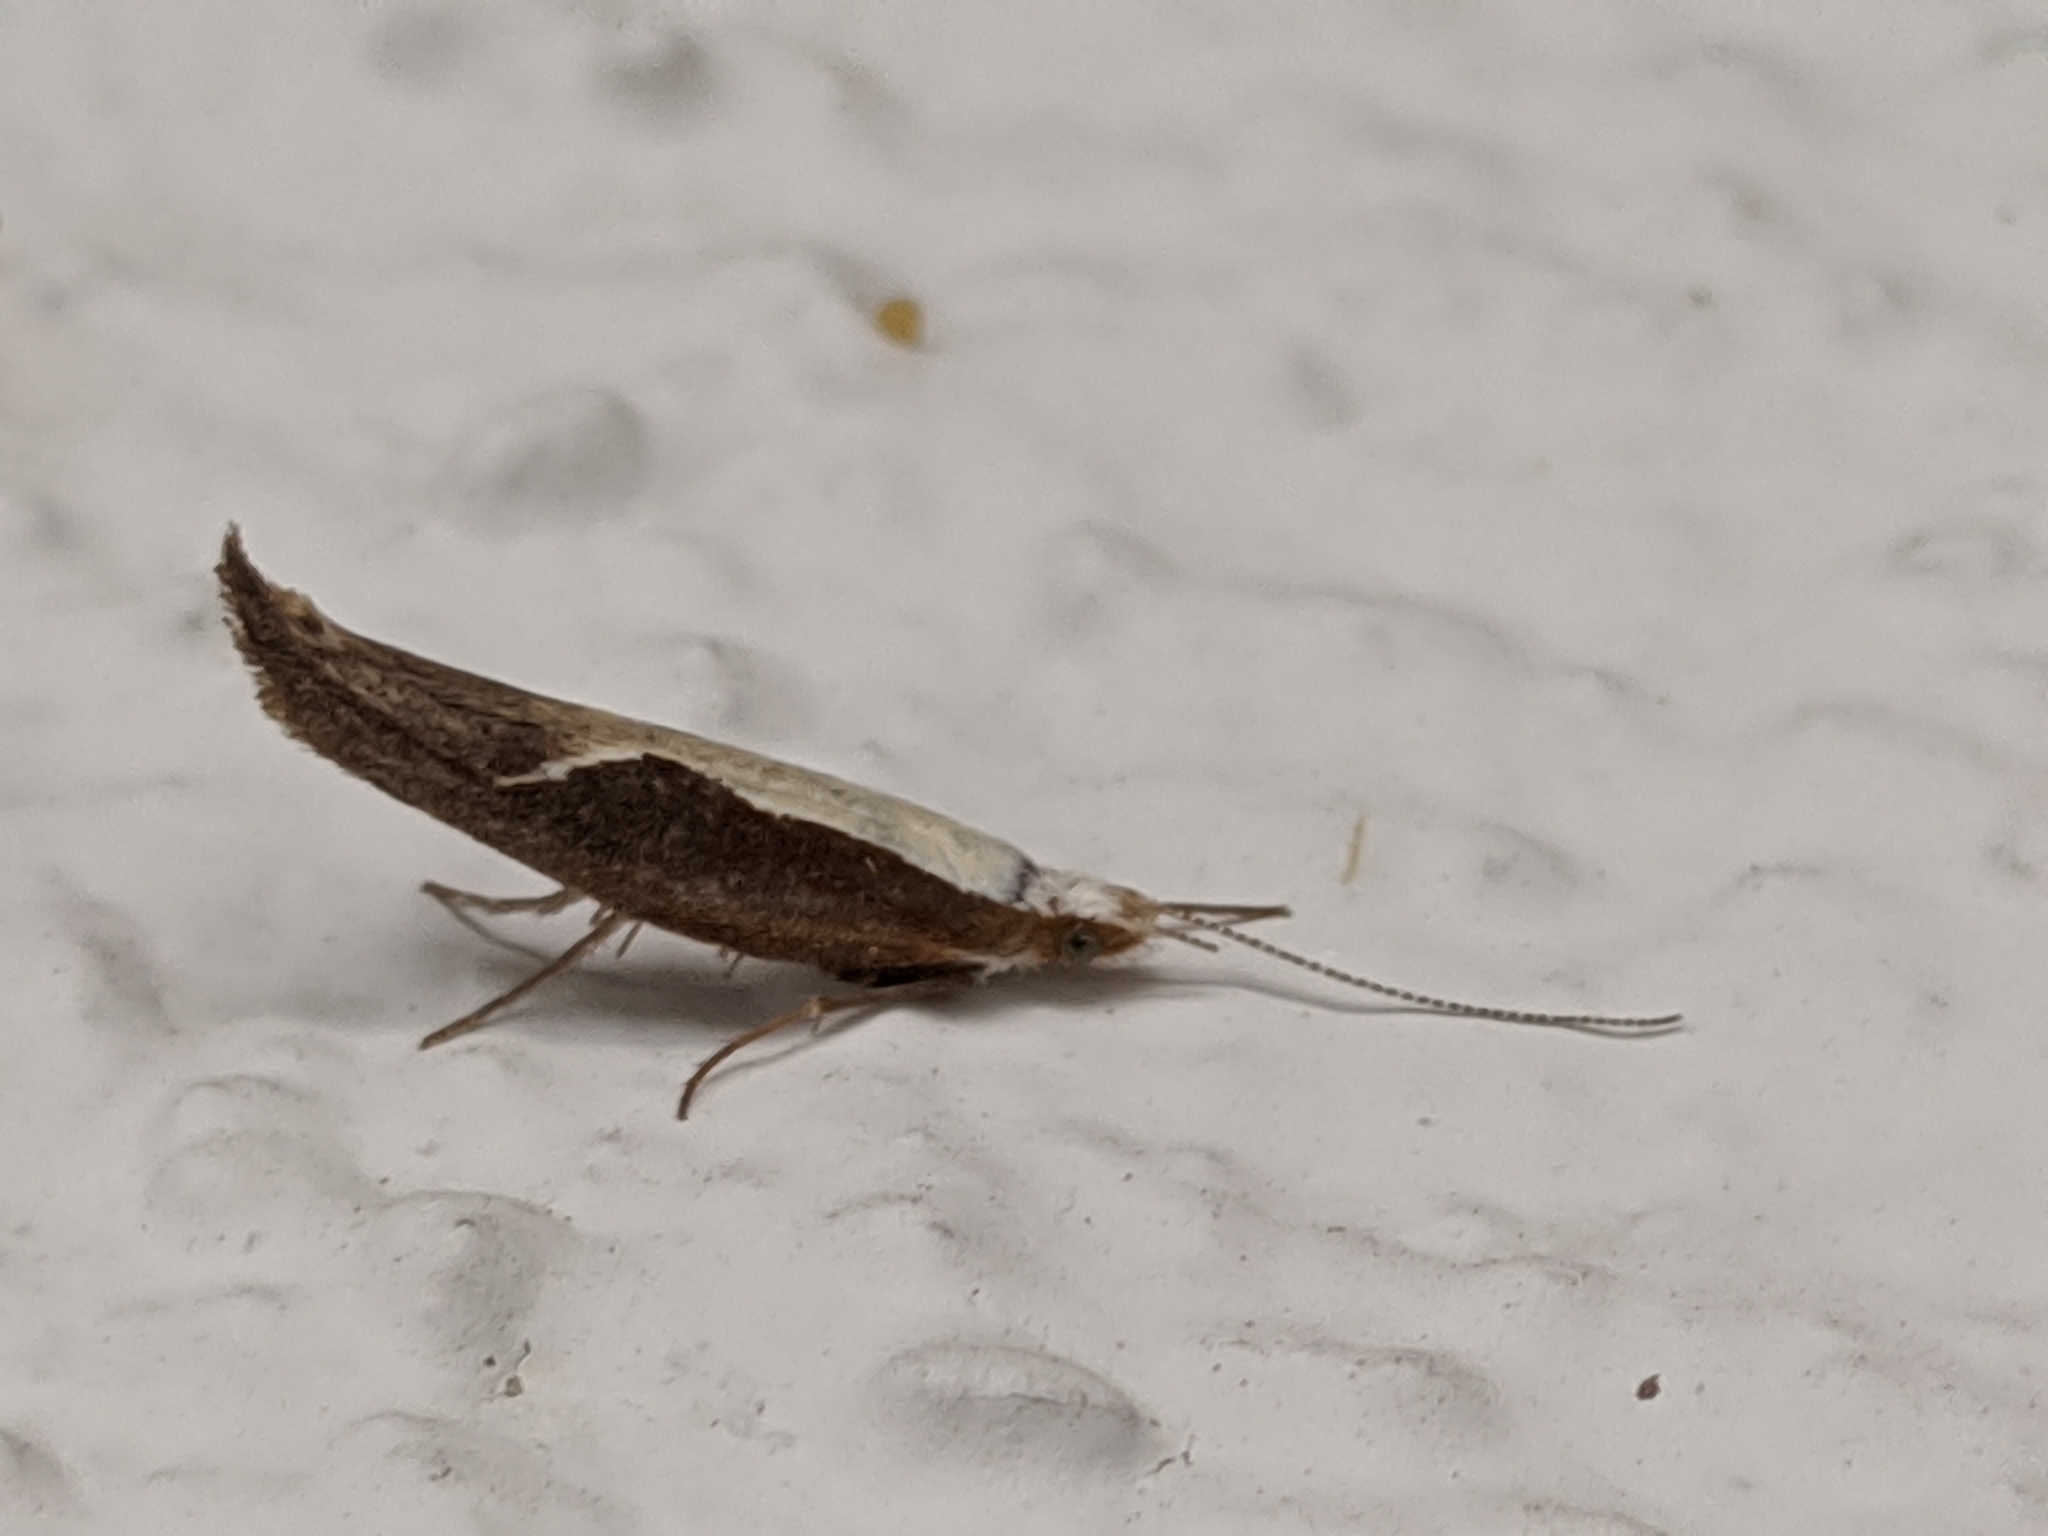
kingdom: Animalia
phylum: Arthropoda
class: Insecta
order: Lepidoptera
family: Ypsolophidae
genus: Ypsolopha
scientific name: Ypsolopha dentella
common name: Honeysuckle moth
